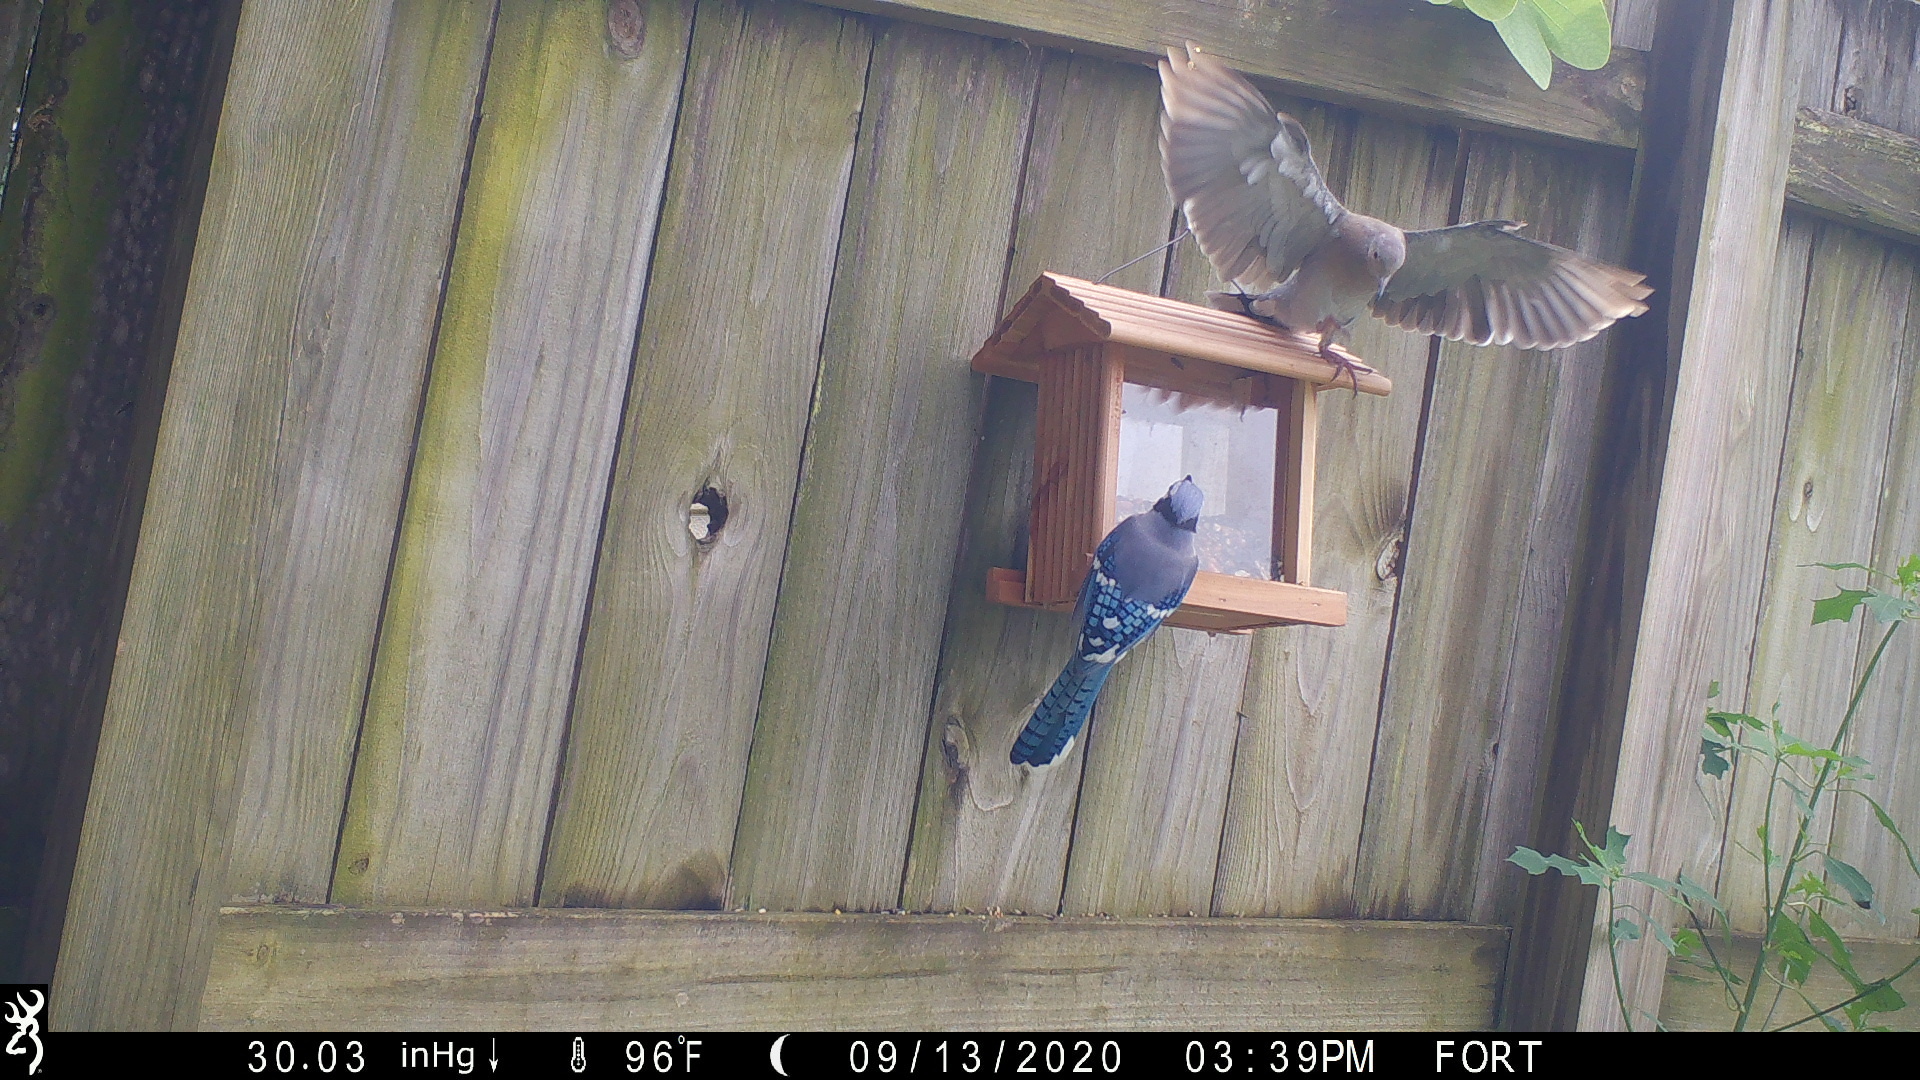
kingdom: Animalia
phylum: Chordata
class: Aves
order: Columbiformes
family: Columbidae
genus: Zenaida
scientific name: Zenaida asiatica
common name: White-winged dove
